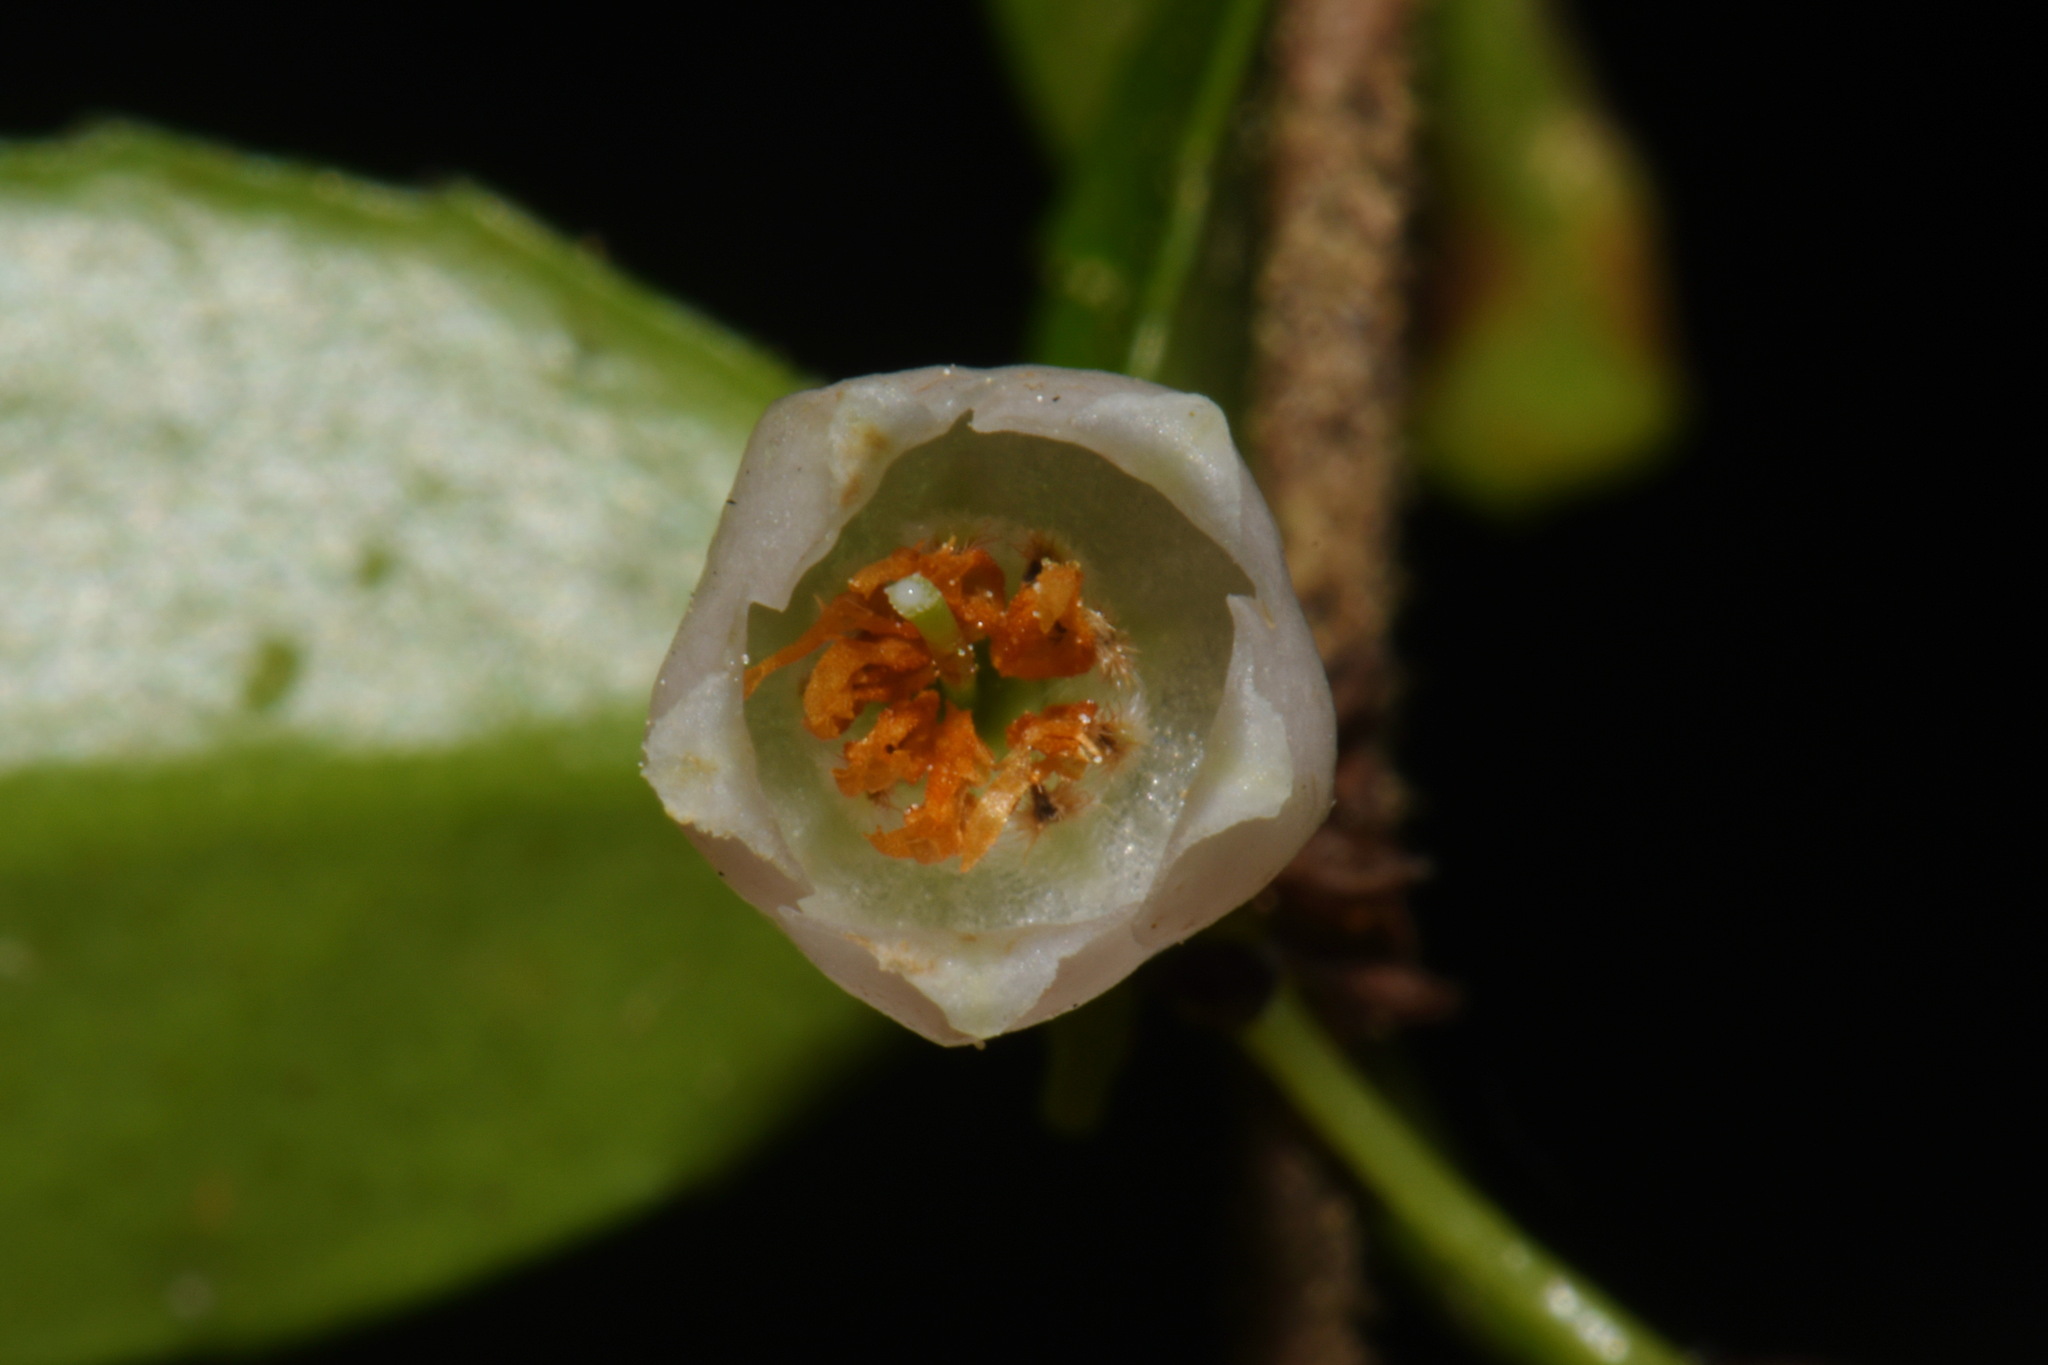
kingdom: Plantae
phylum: Tracheophyta
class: Magnoliopsida
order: Ericales
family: Ericaceae
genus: Vaccinium
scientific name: Vaccinium ovatum
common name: California-huckleberry
